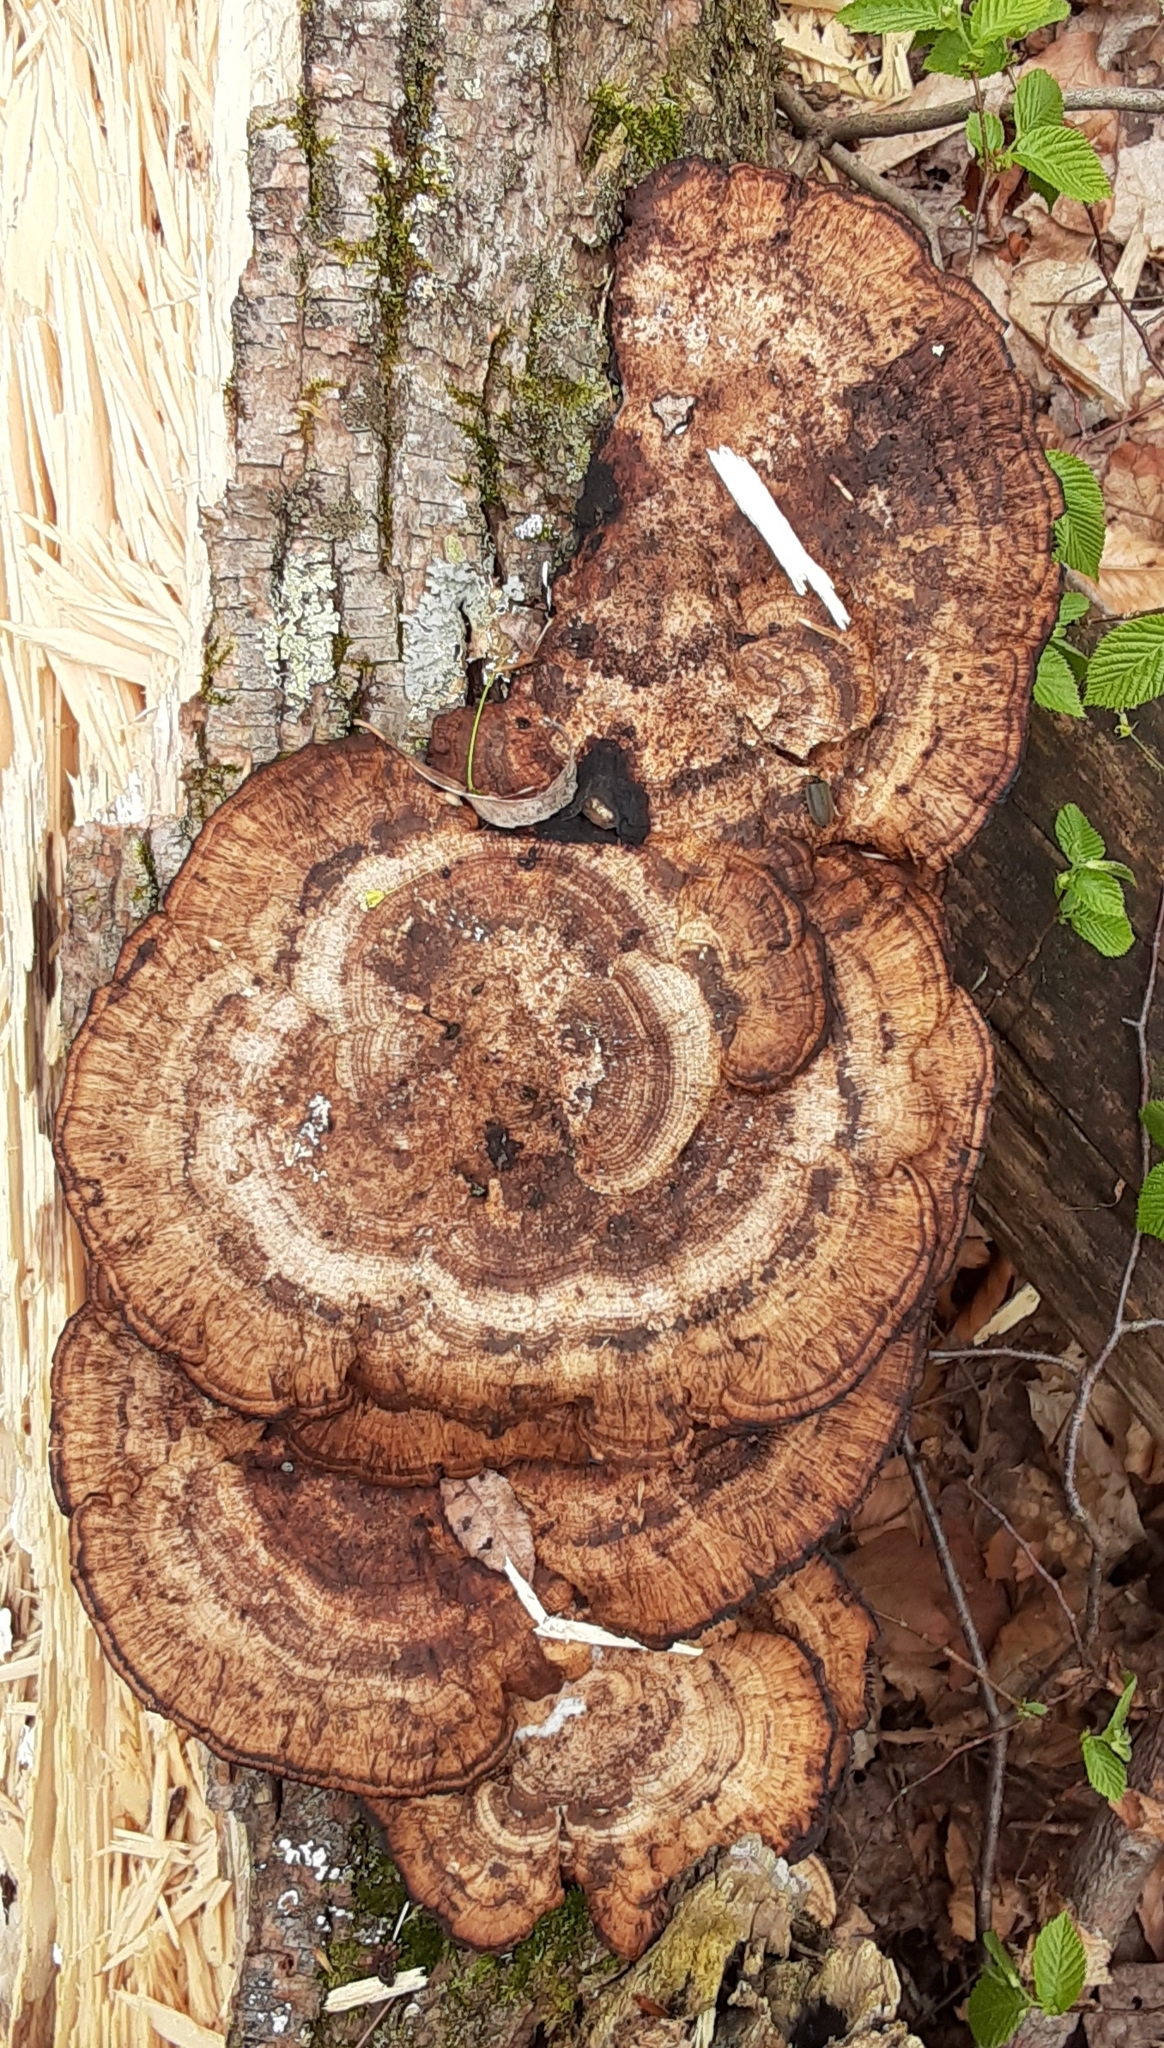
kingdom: Fungi
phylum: Basidiomycota
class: Agaricomycetes
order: Polyporales
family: Polyporaceae
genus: Daedaleopsis
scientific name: Daedaleopsis confragosa
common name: Blushing bracket
